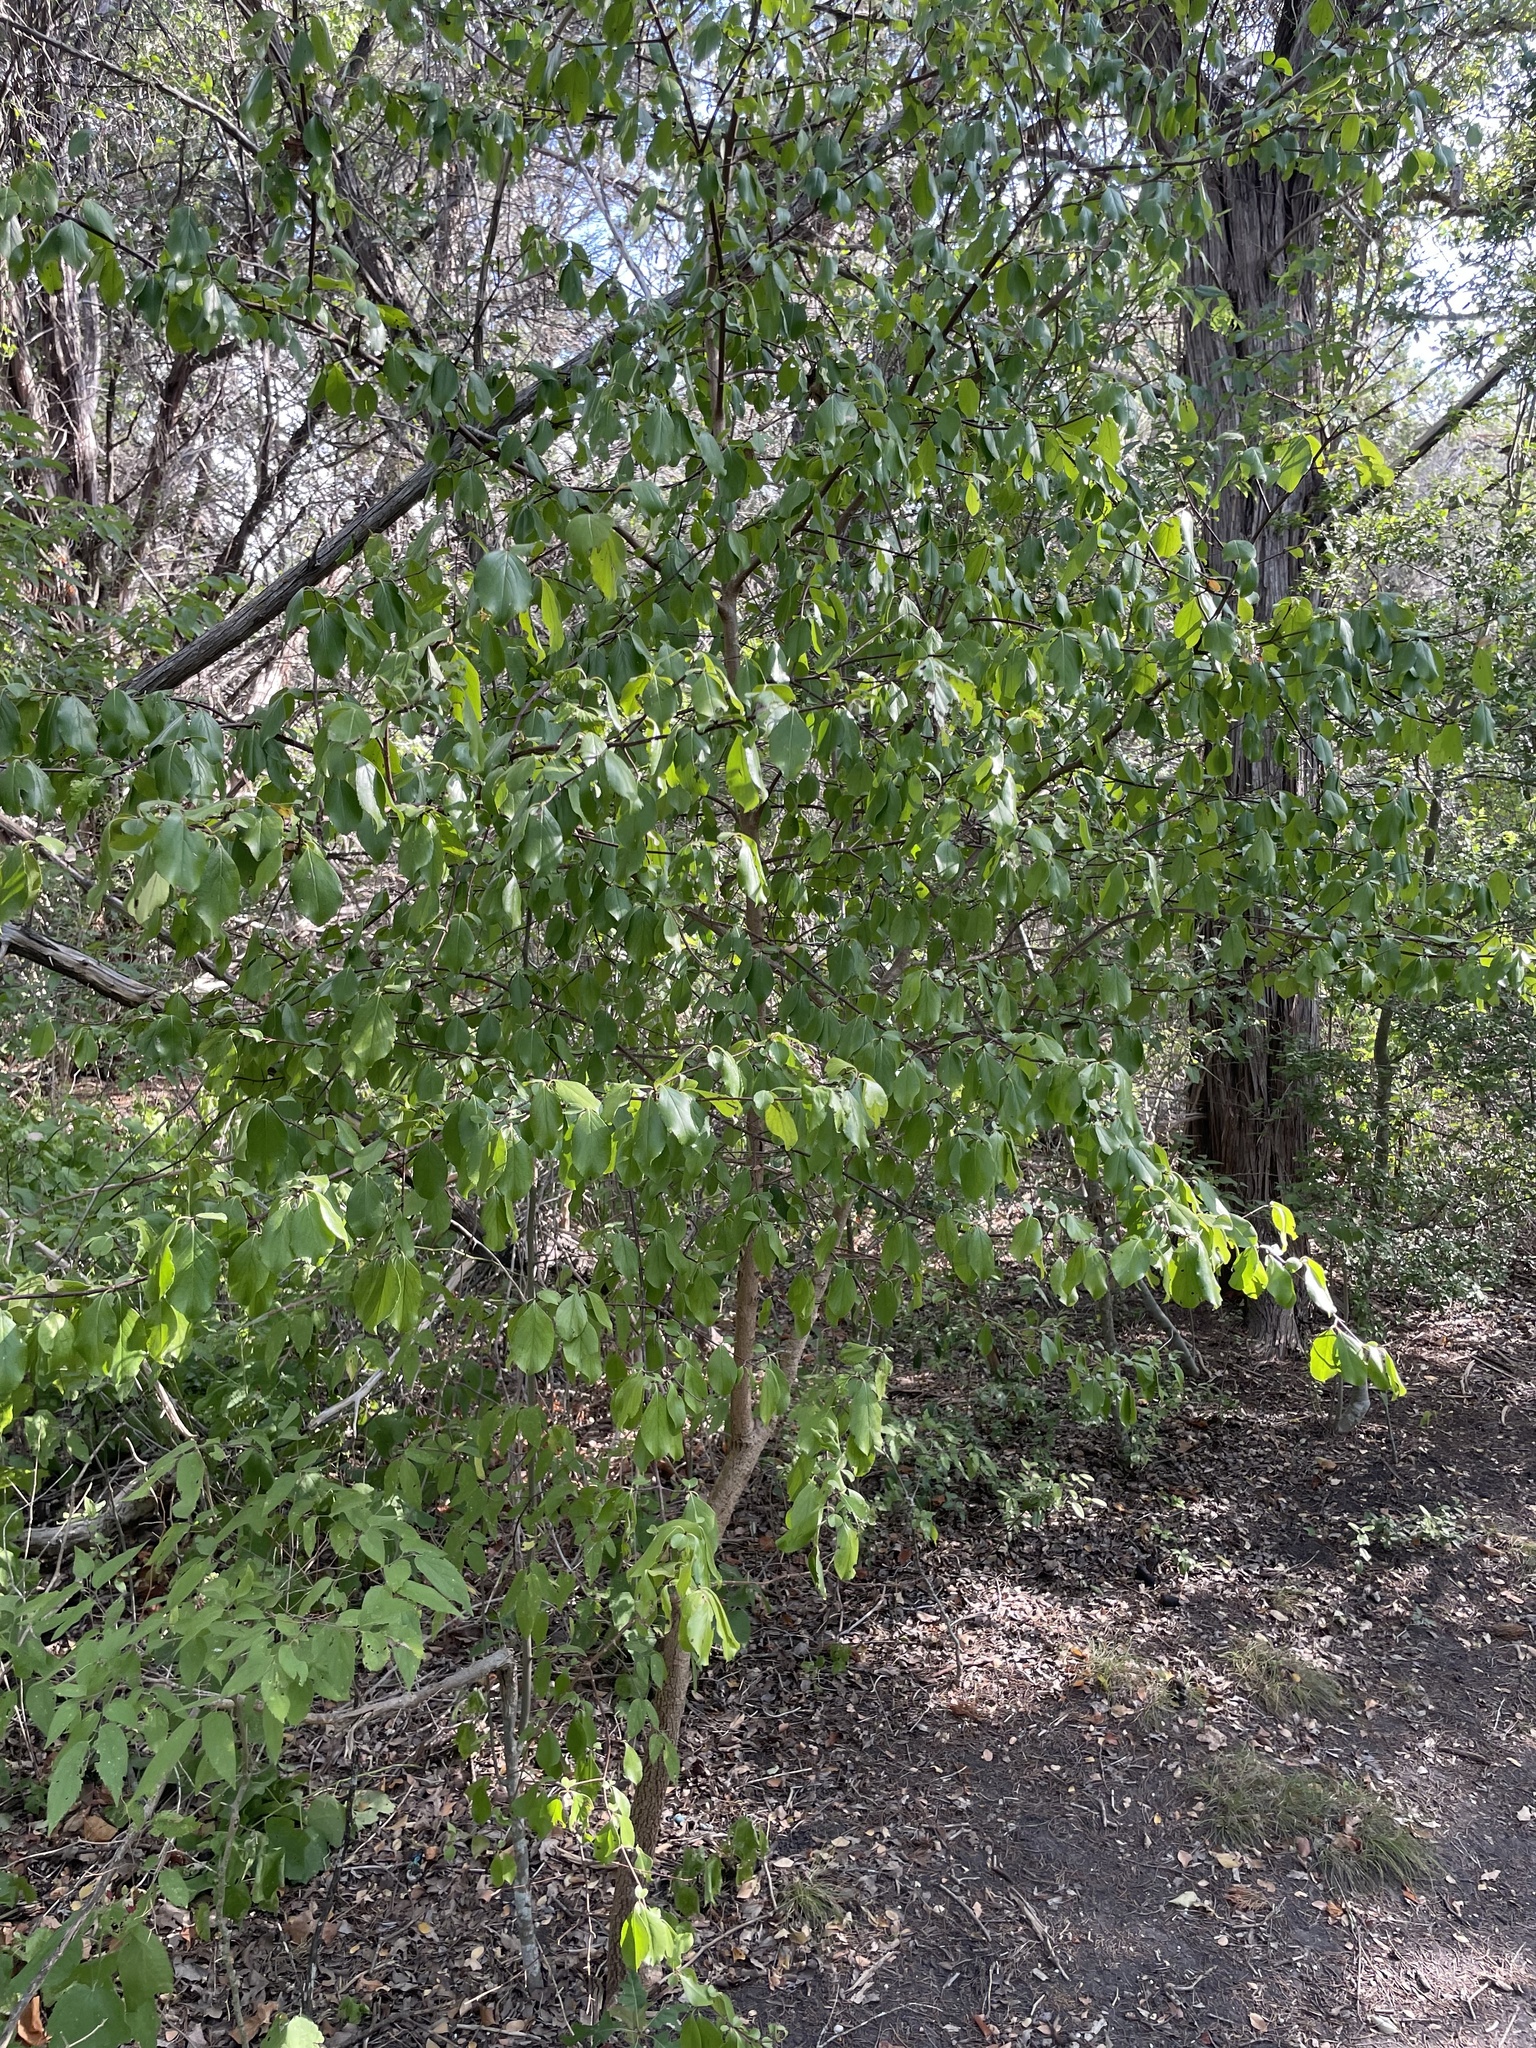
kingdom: Plantae
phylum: Tracheophyta
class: Magnoliopsida
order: Dipsacales
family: Viburnaceae
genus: Viburnum
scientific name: Viburnum rufidulum
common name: Blue haw
